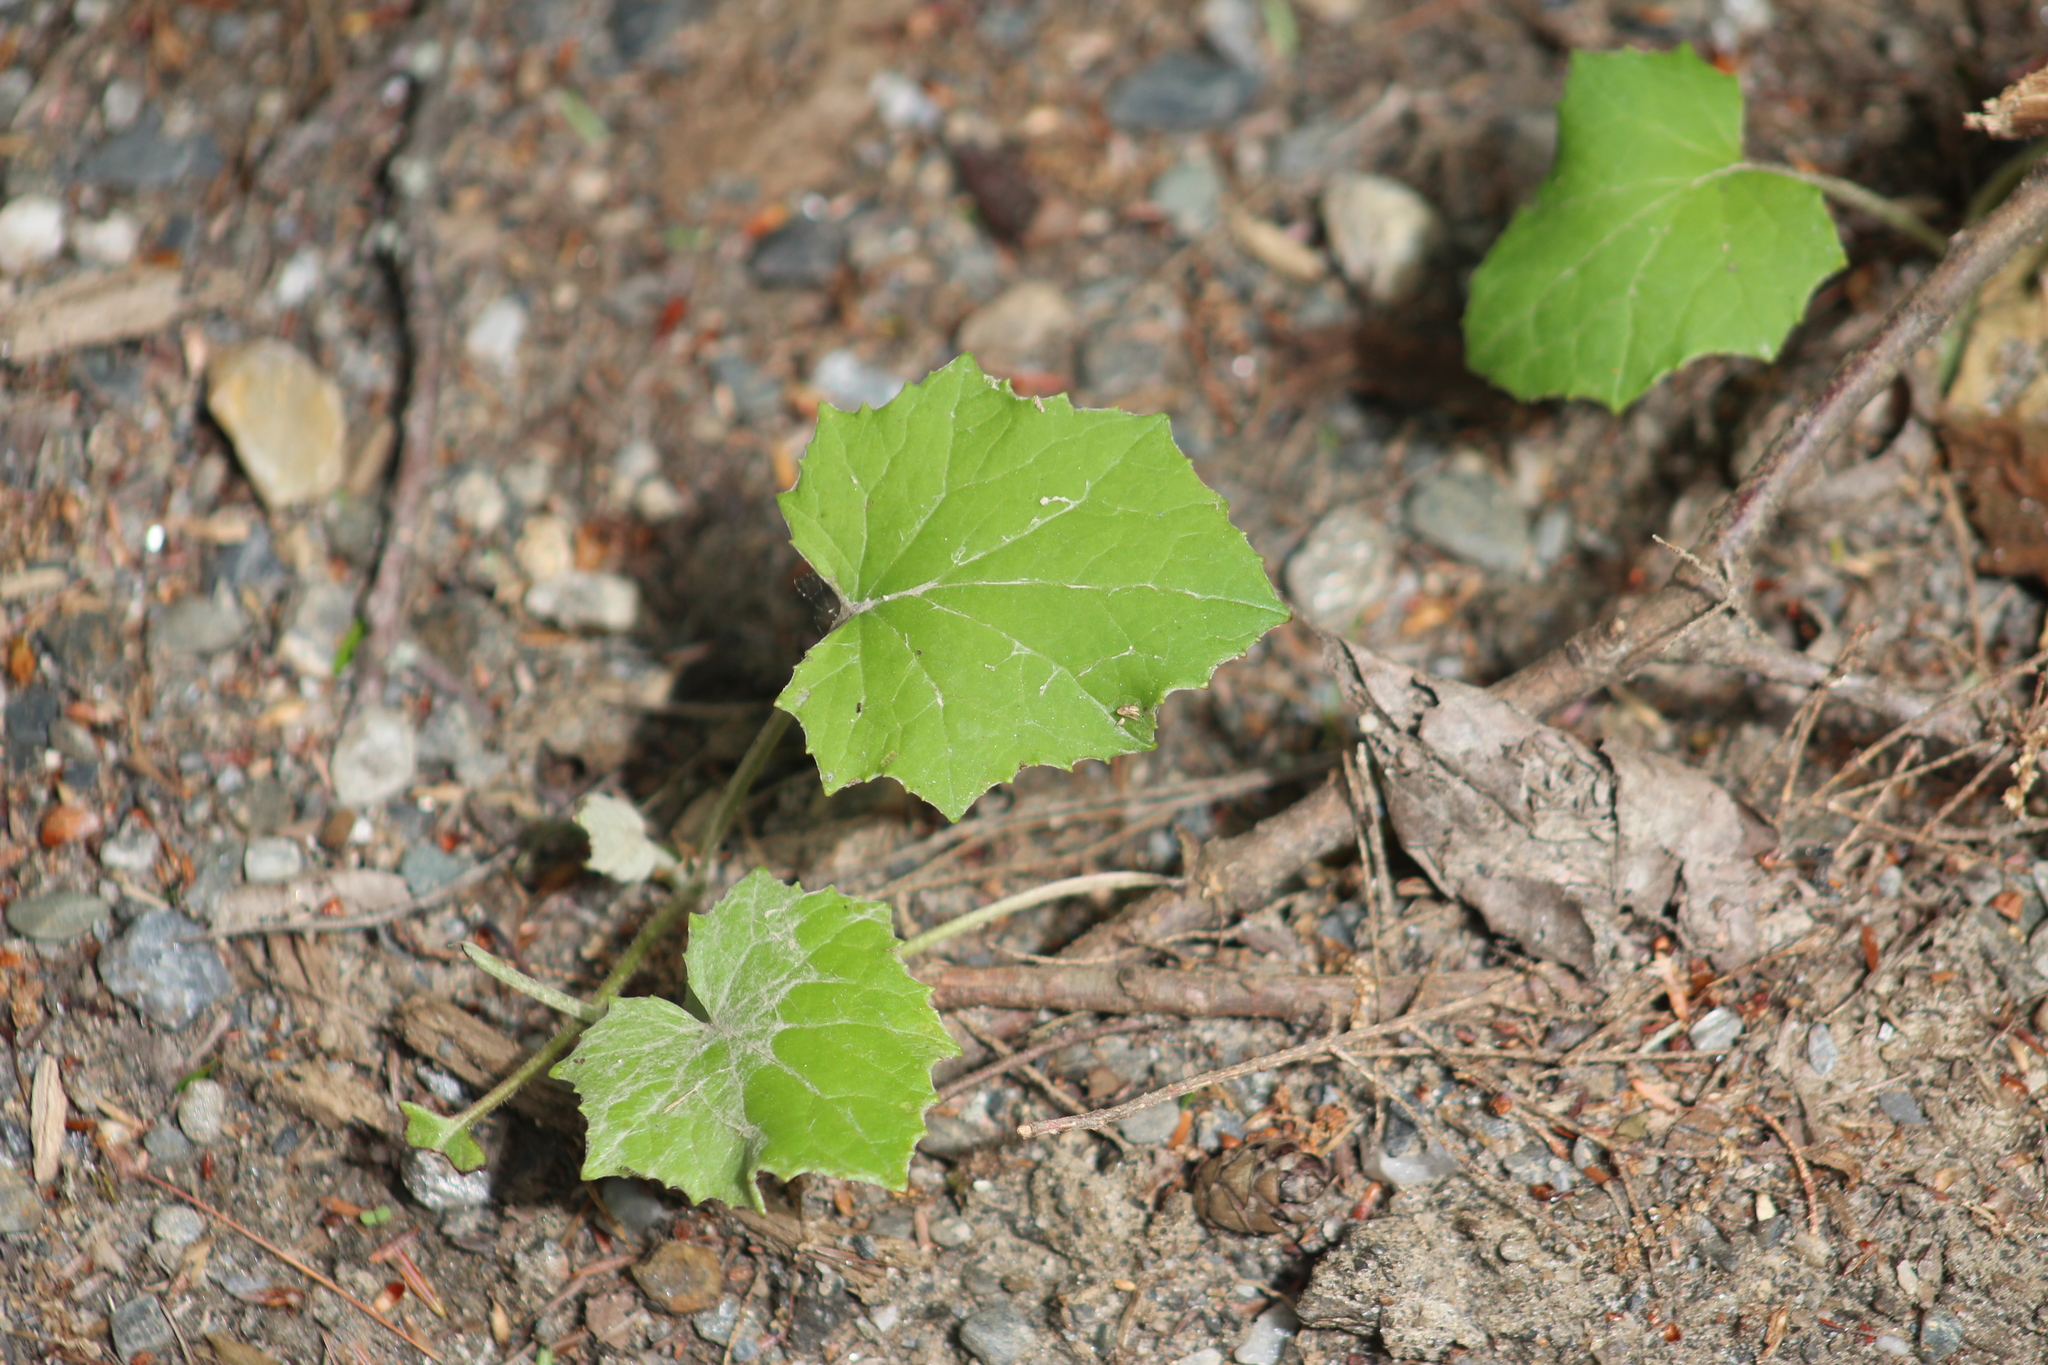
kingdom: Plantae
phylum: Tracheophyta
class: Magnoliopsida
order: Asterales
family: Asteraceae
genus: Tussilago
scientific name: Tussilago farfara
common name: Coltsfoot
